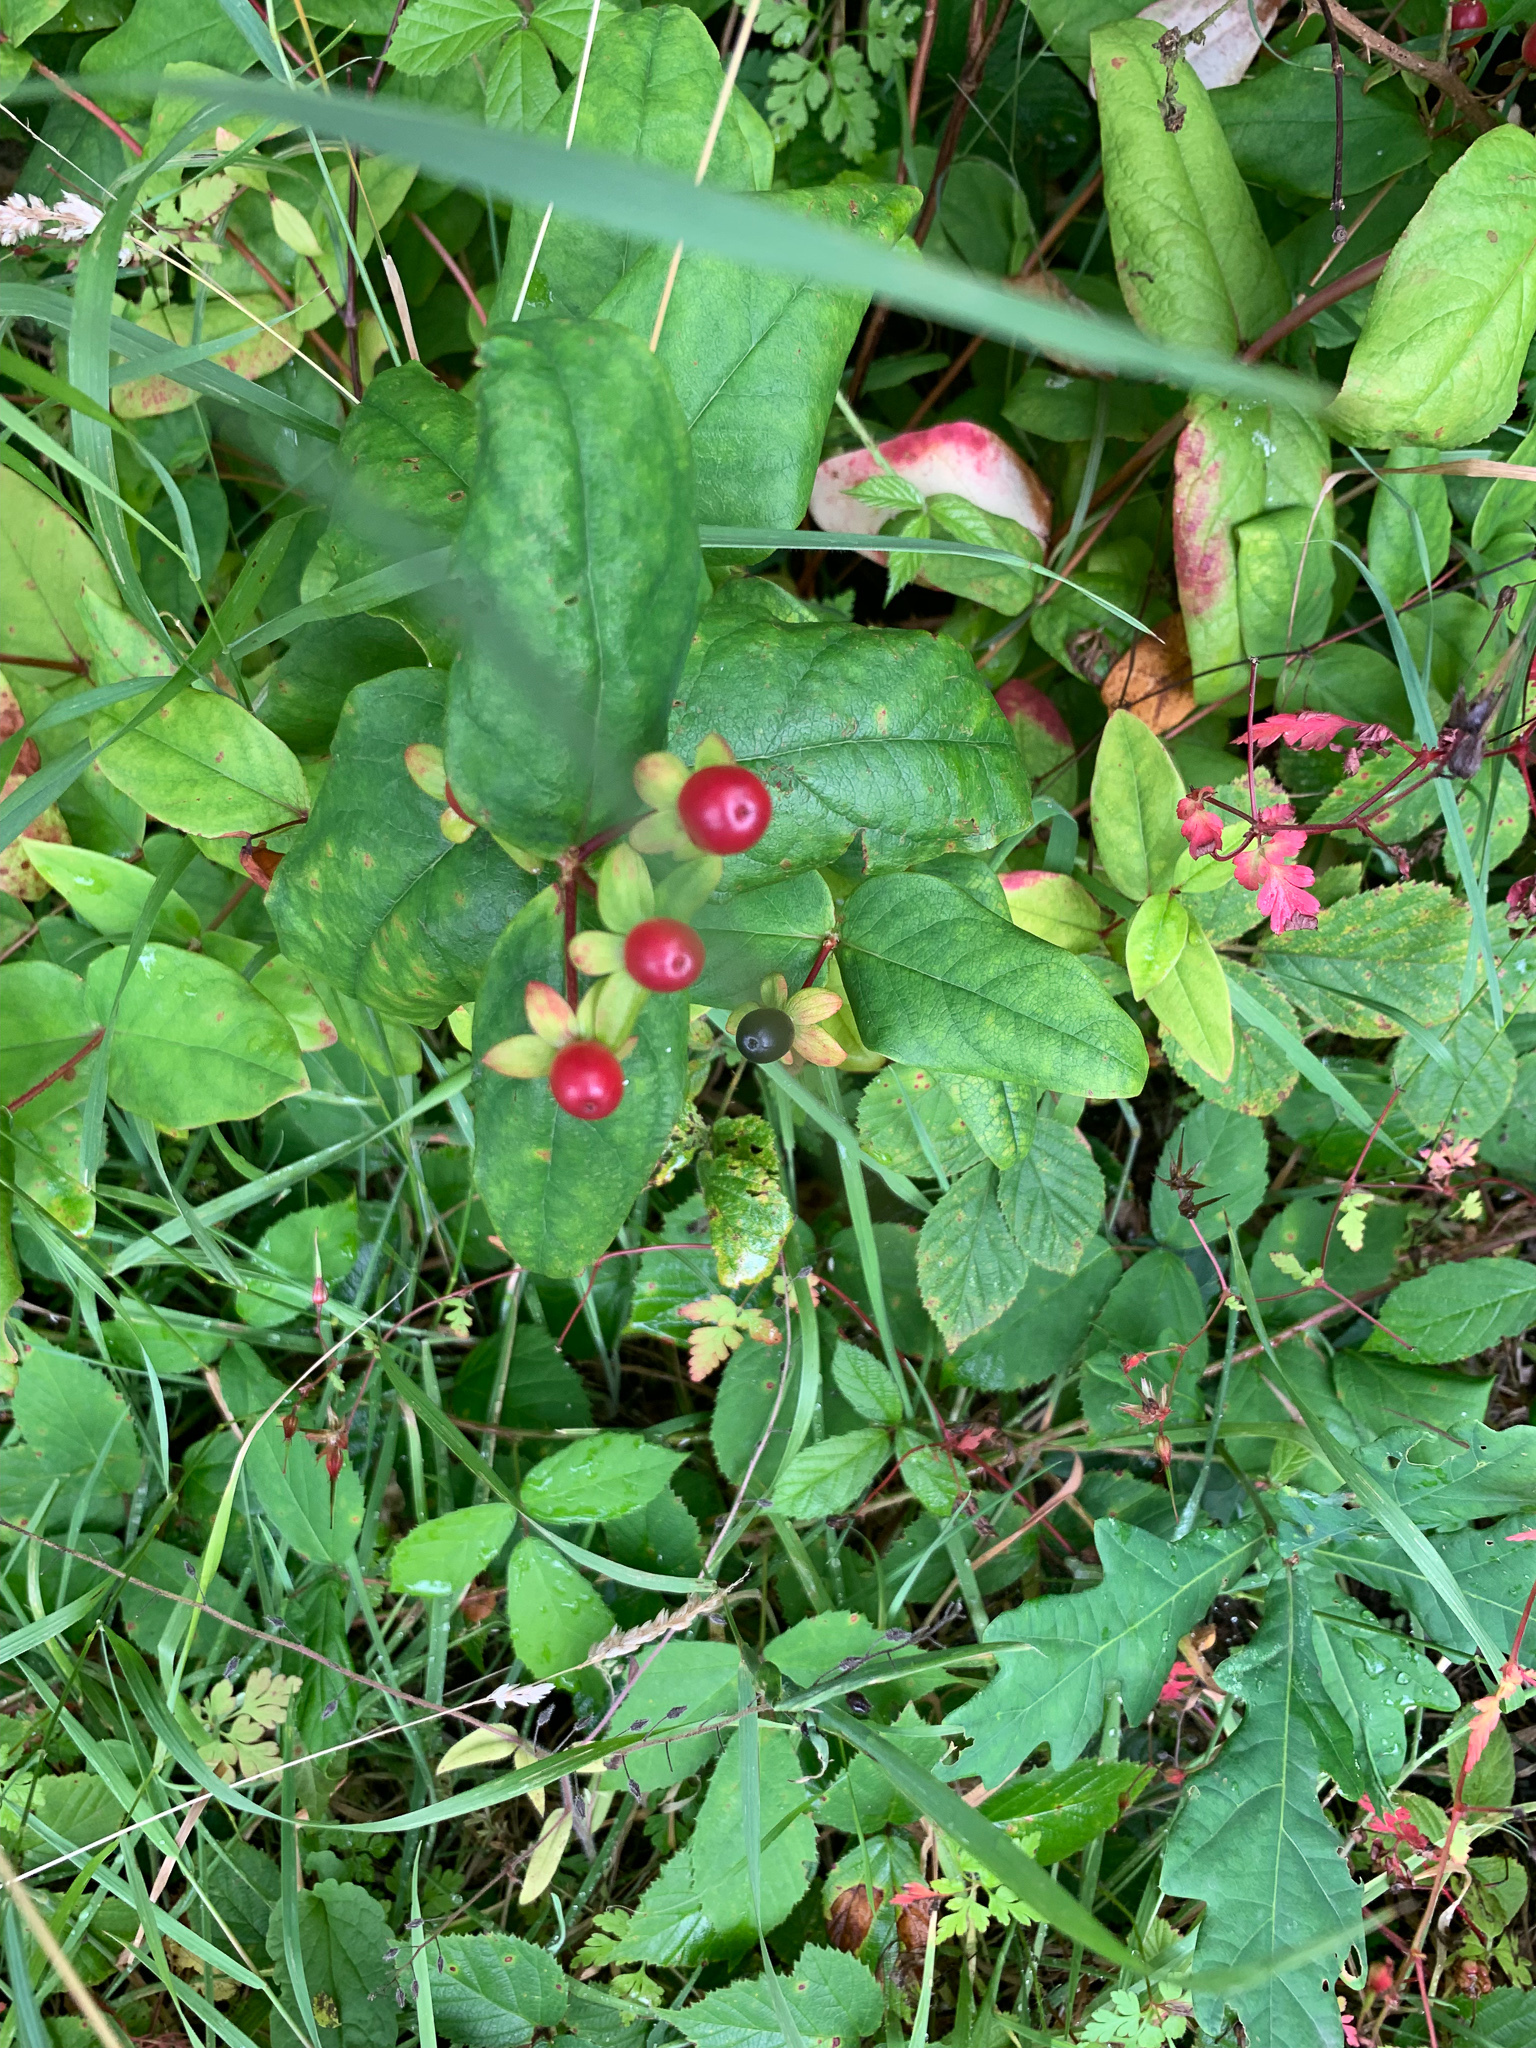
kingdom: Plantae
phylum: Tracheophyta
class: Magnoliopsida
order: Malpighiales
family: Hypericaceae
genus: Hypericum
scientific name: Hypericum androsaemum
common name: Sweet-amber
